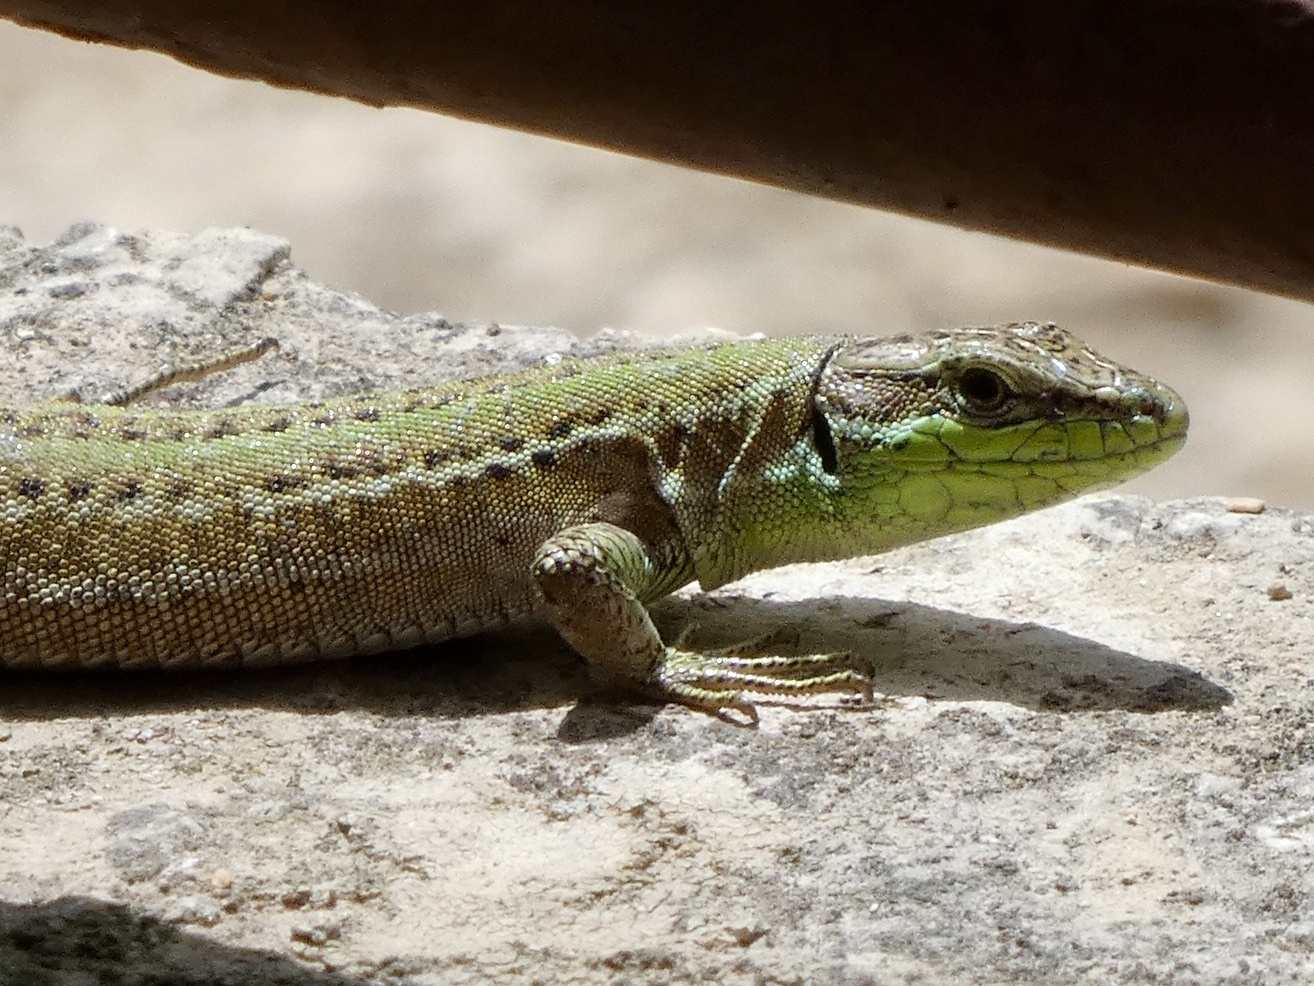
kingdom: Animalia
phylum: Chordata
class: Squamata
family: Lacertidae
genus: Podarcis
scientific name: Podarcis siculus
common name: Italian wall lizard
